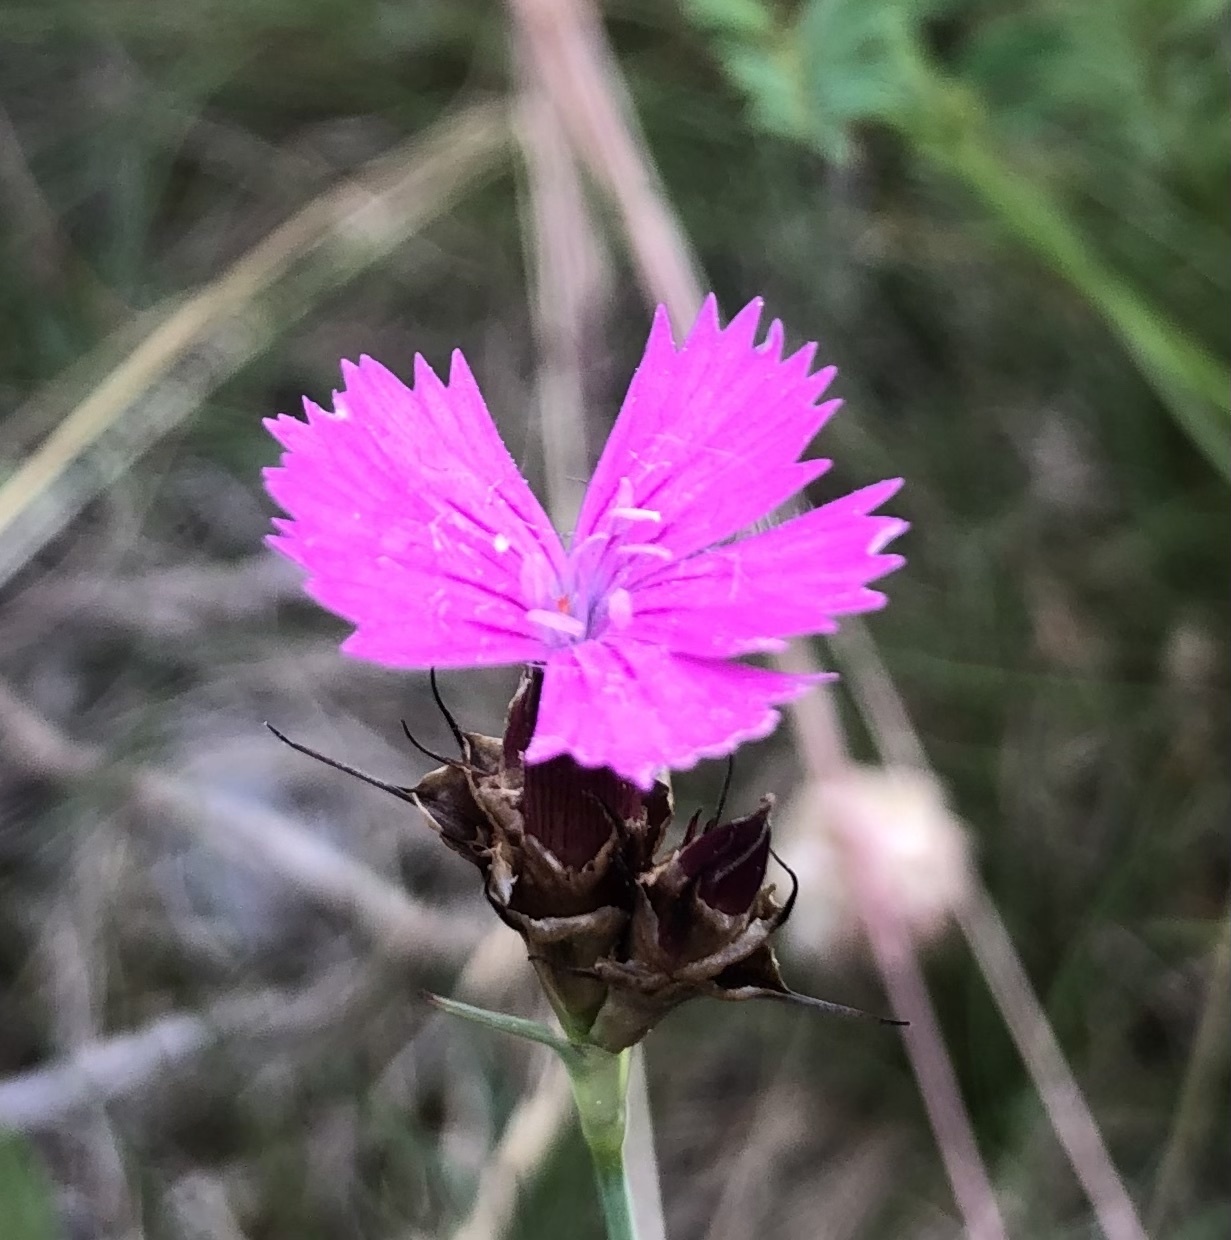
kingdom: Plantae
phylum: Tracheophyta
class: Magnoliopsida
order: Caryophyllales
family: Caryophyllaceae
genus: Dianthus
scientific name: Dianthus carthusianorum
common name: Carthusian pink
